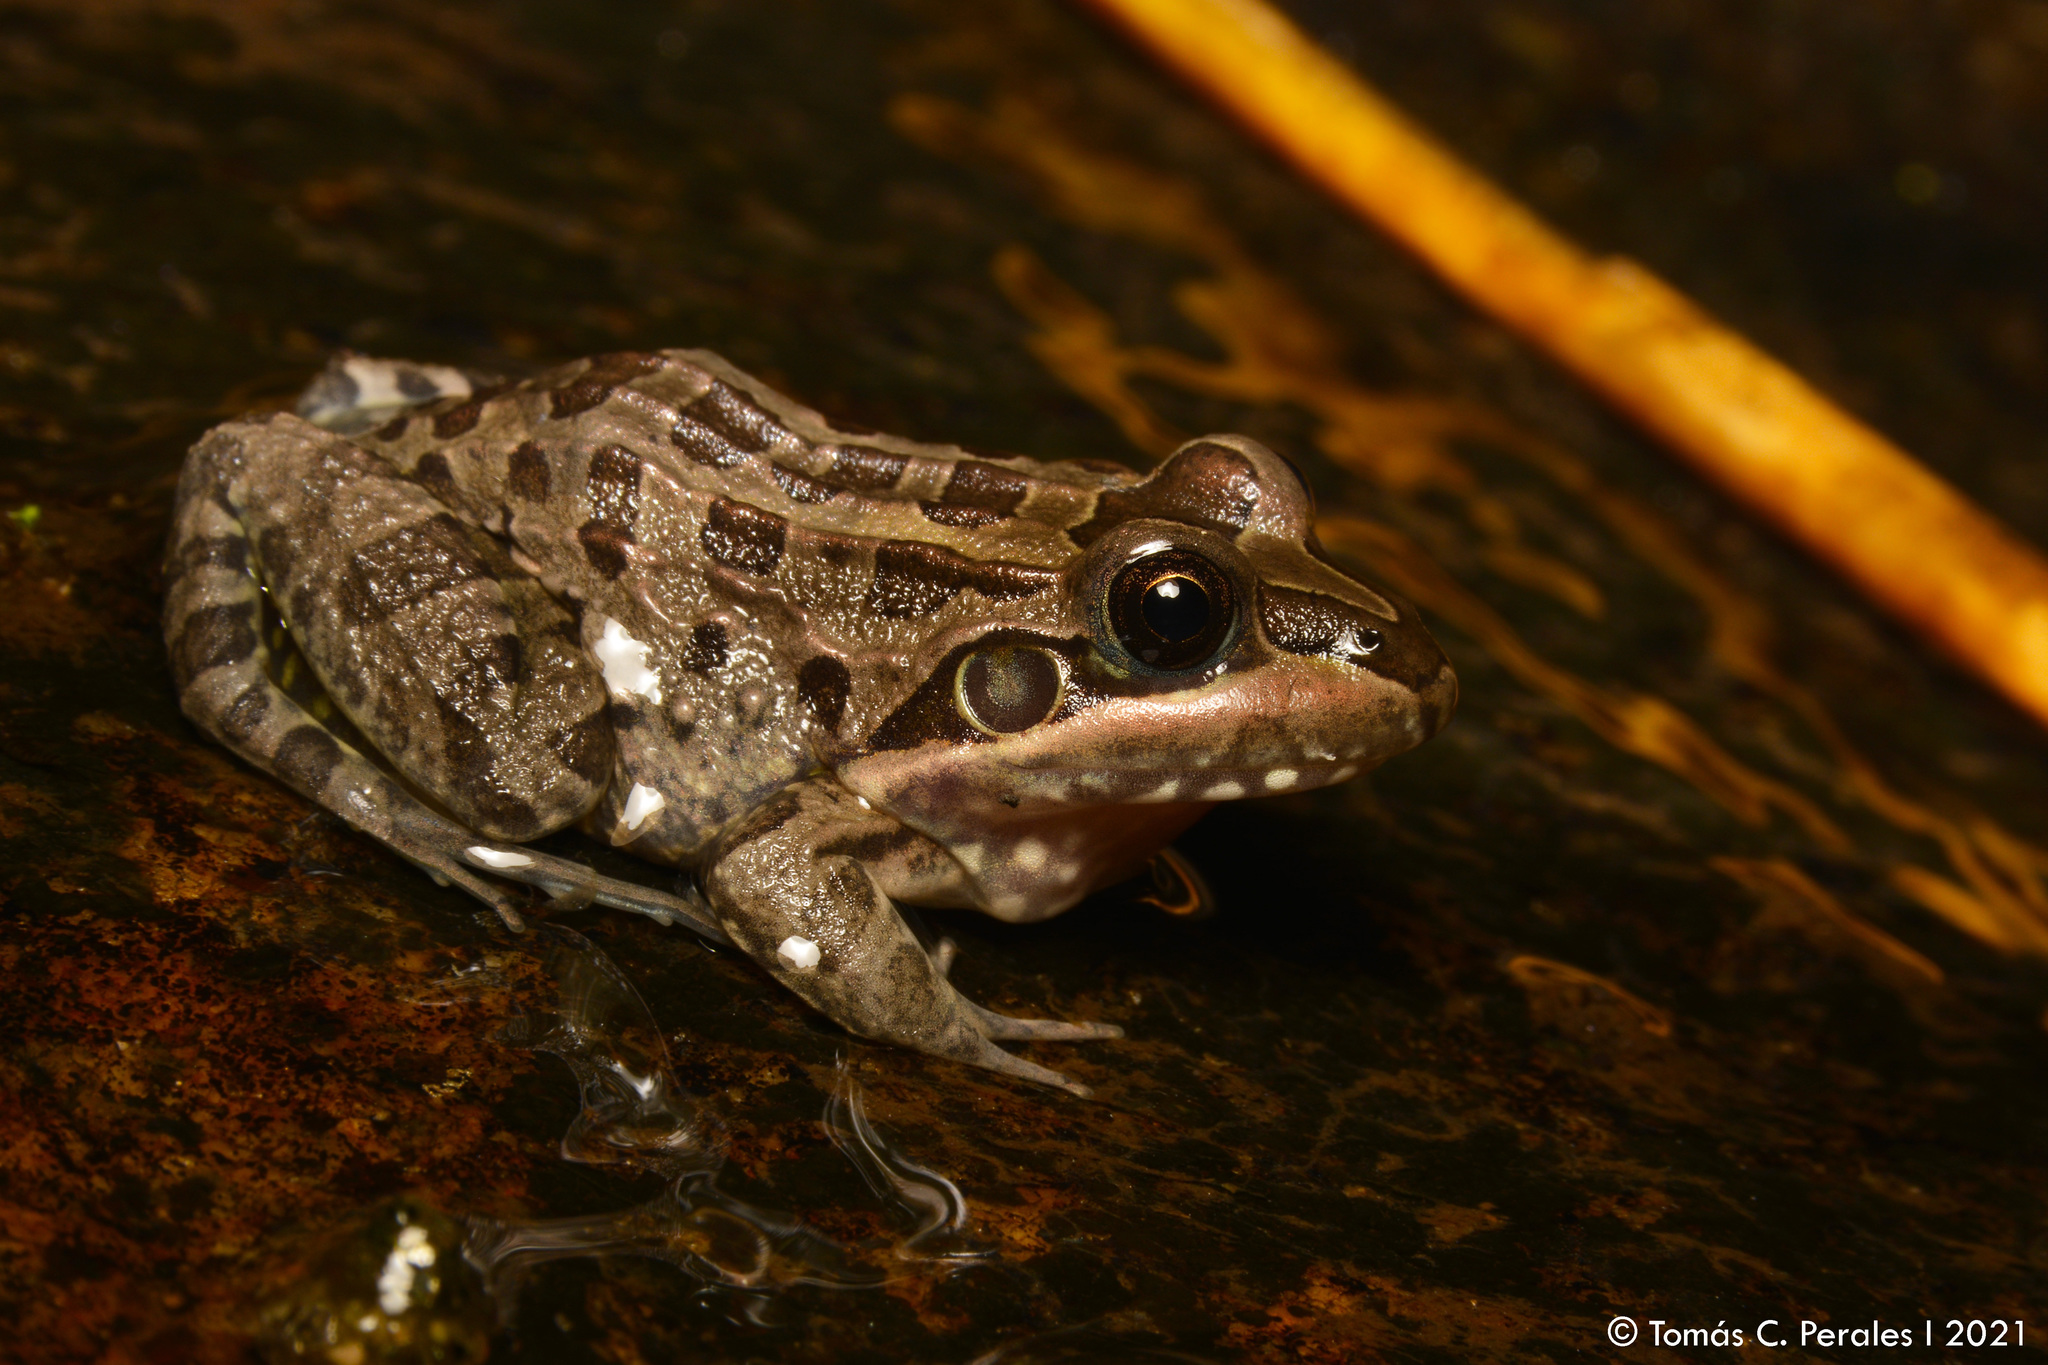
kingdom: Animalia
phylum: Chordata
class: Amphibia
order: Anura
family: Leptodactylidae
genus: Leptodactylus
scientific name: Leptodactylus luctator
